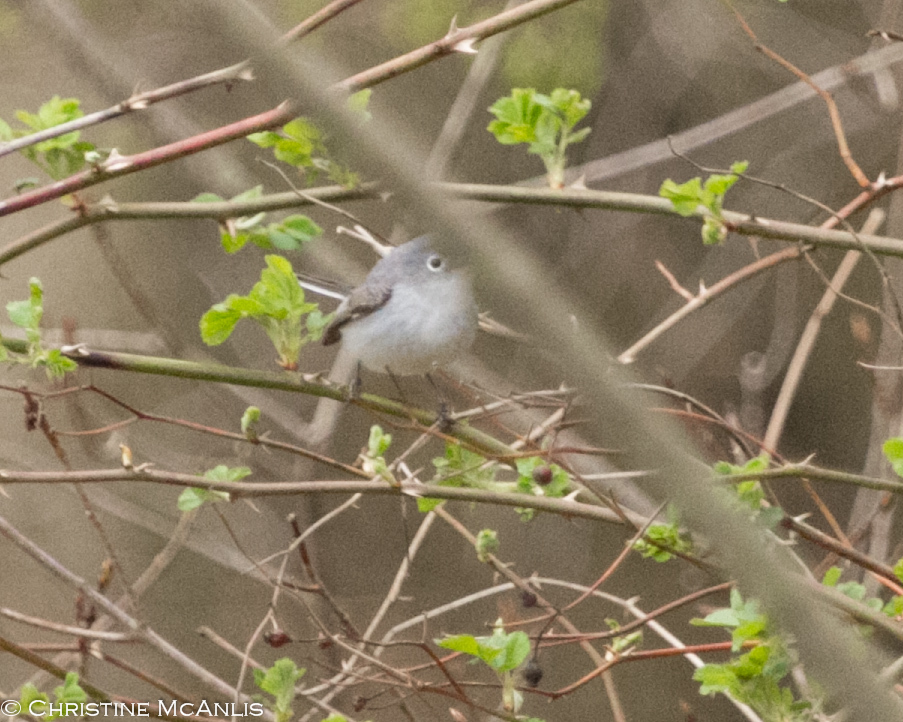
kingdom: Animalia
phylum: Chordata
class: Aves
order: Passeriformes
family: Polioptilidae
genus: Polioptila
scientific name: Polioptila caerulea
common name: Blue-gray gnatcatcher
